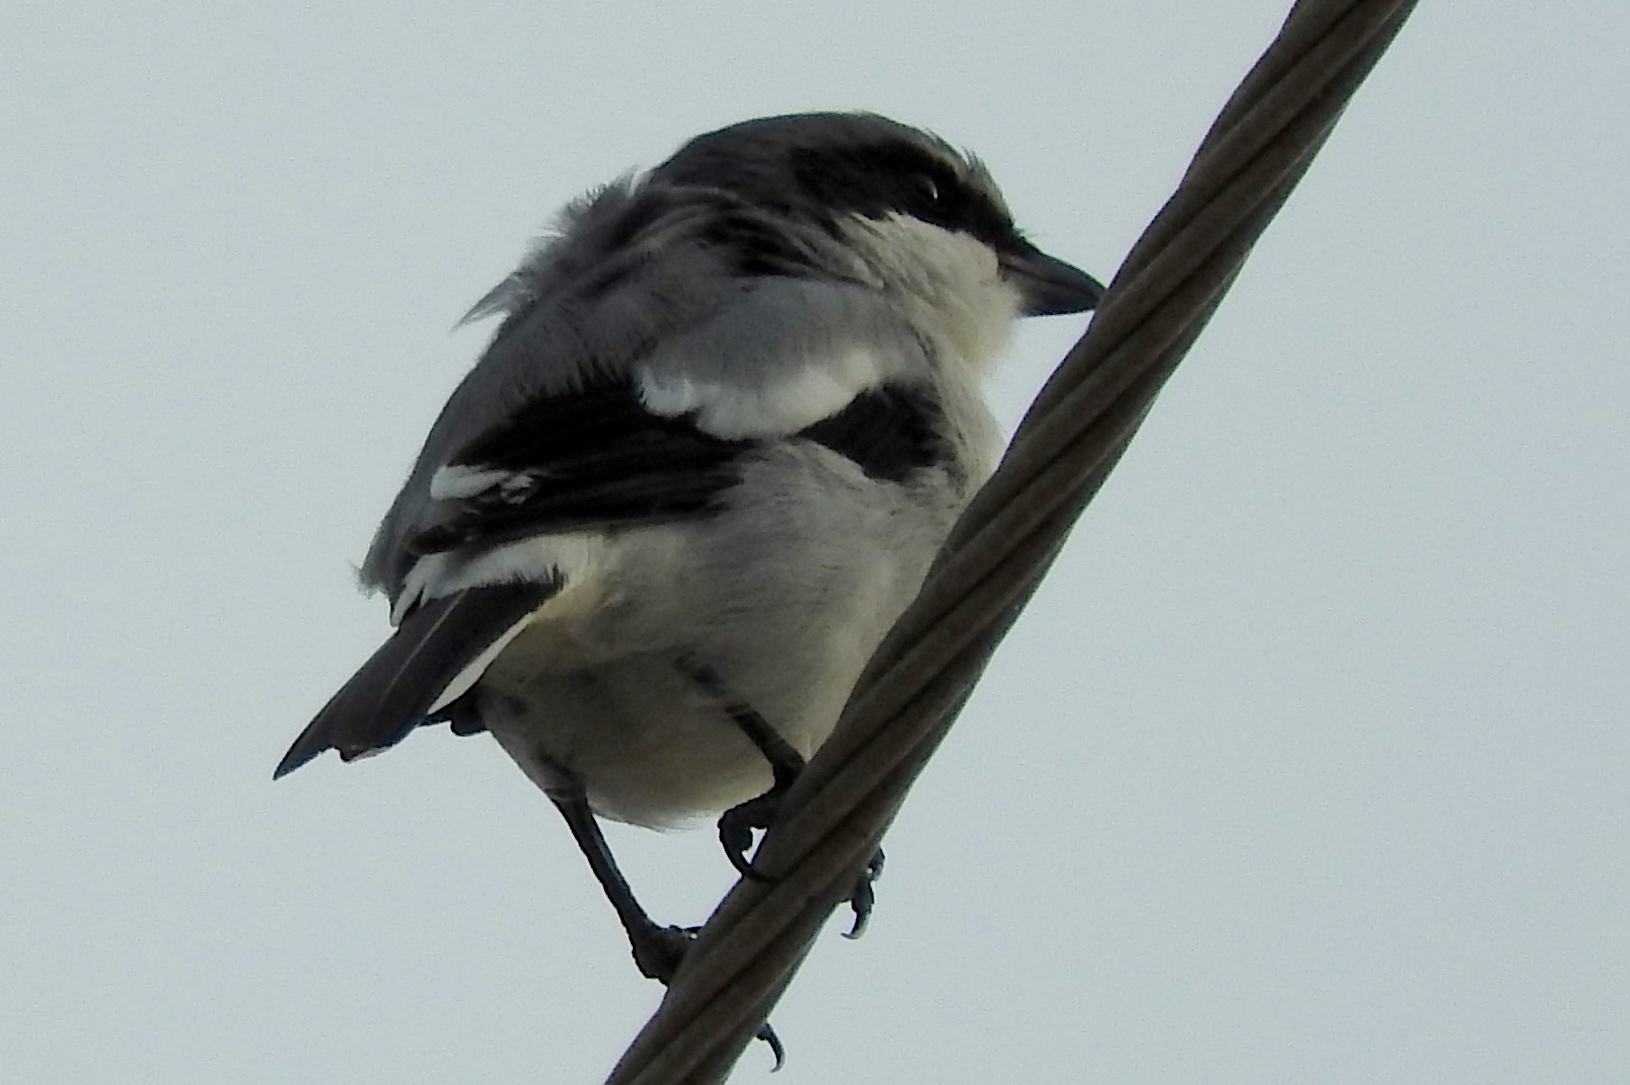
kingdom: Animalia
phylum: Chordata
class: Aves
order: Passeriformes
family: Laniidae
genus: Lanius
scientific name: Lanius ludovicianus
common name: Loggerhead shrike
